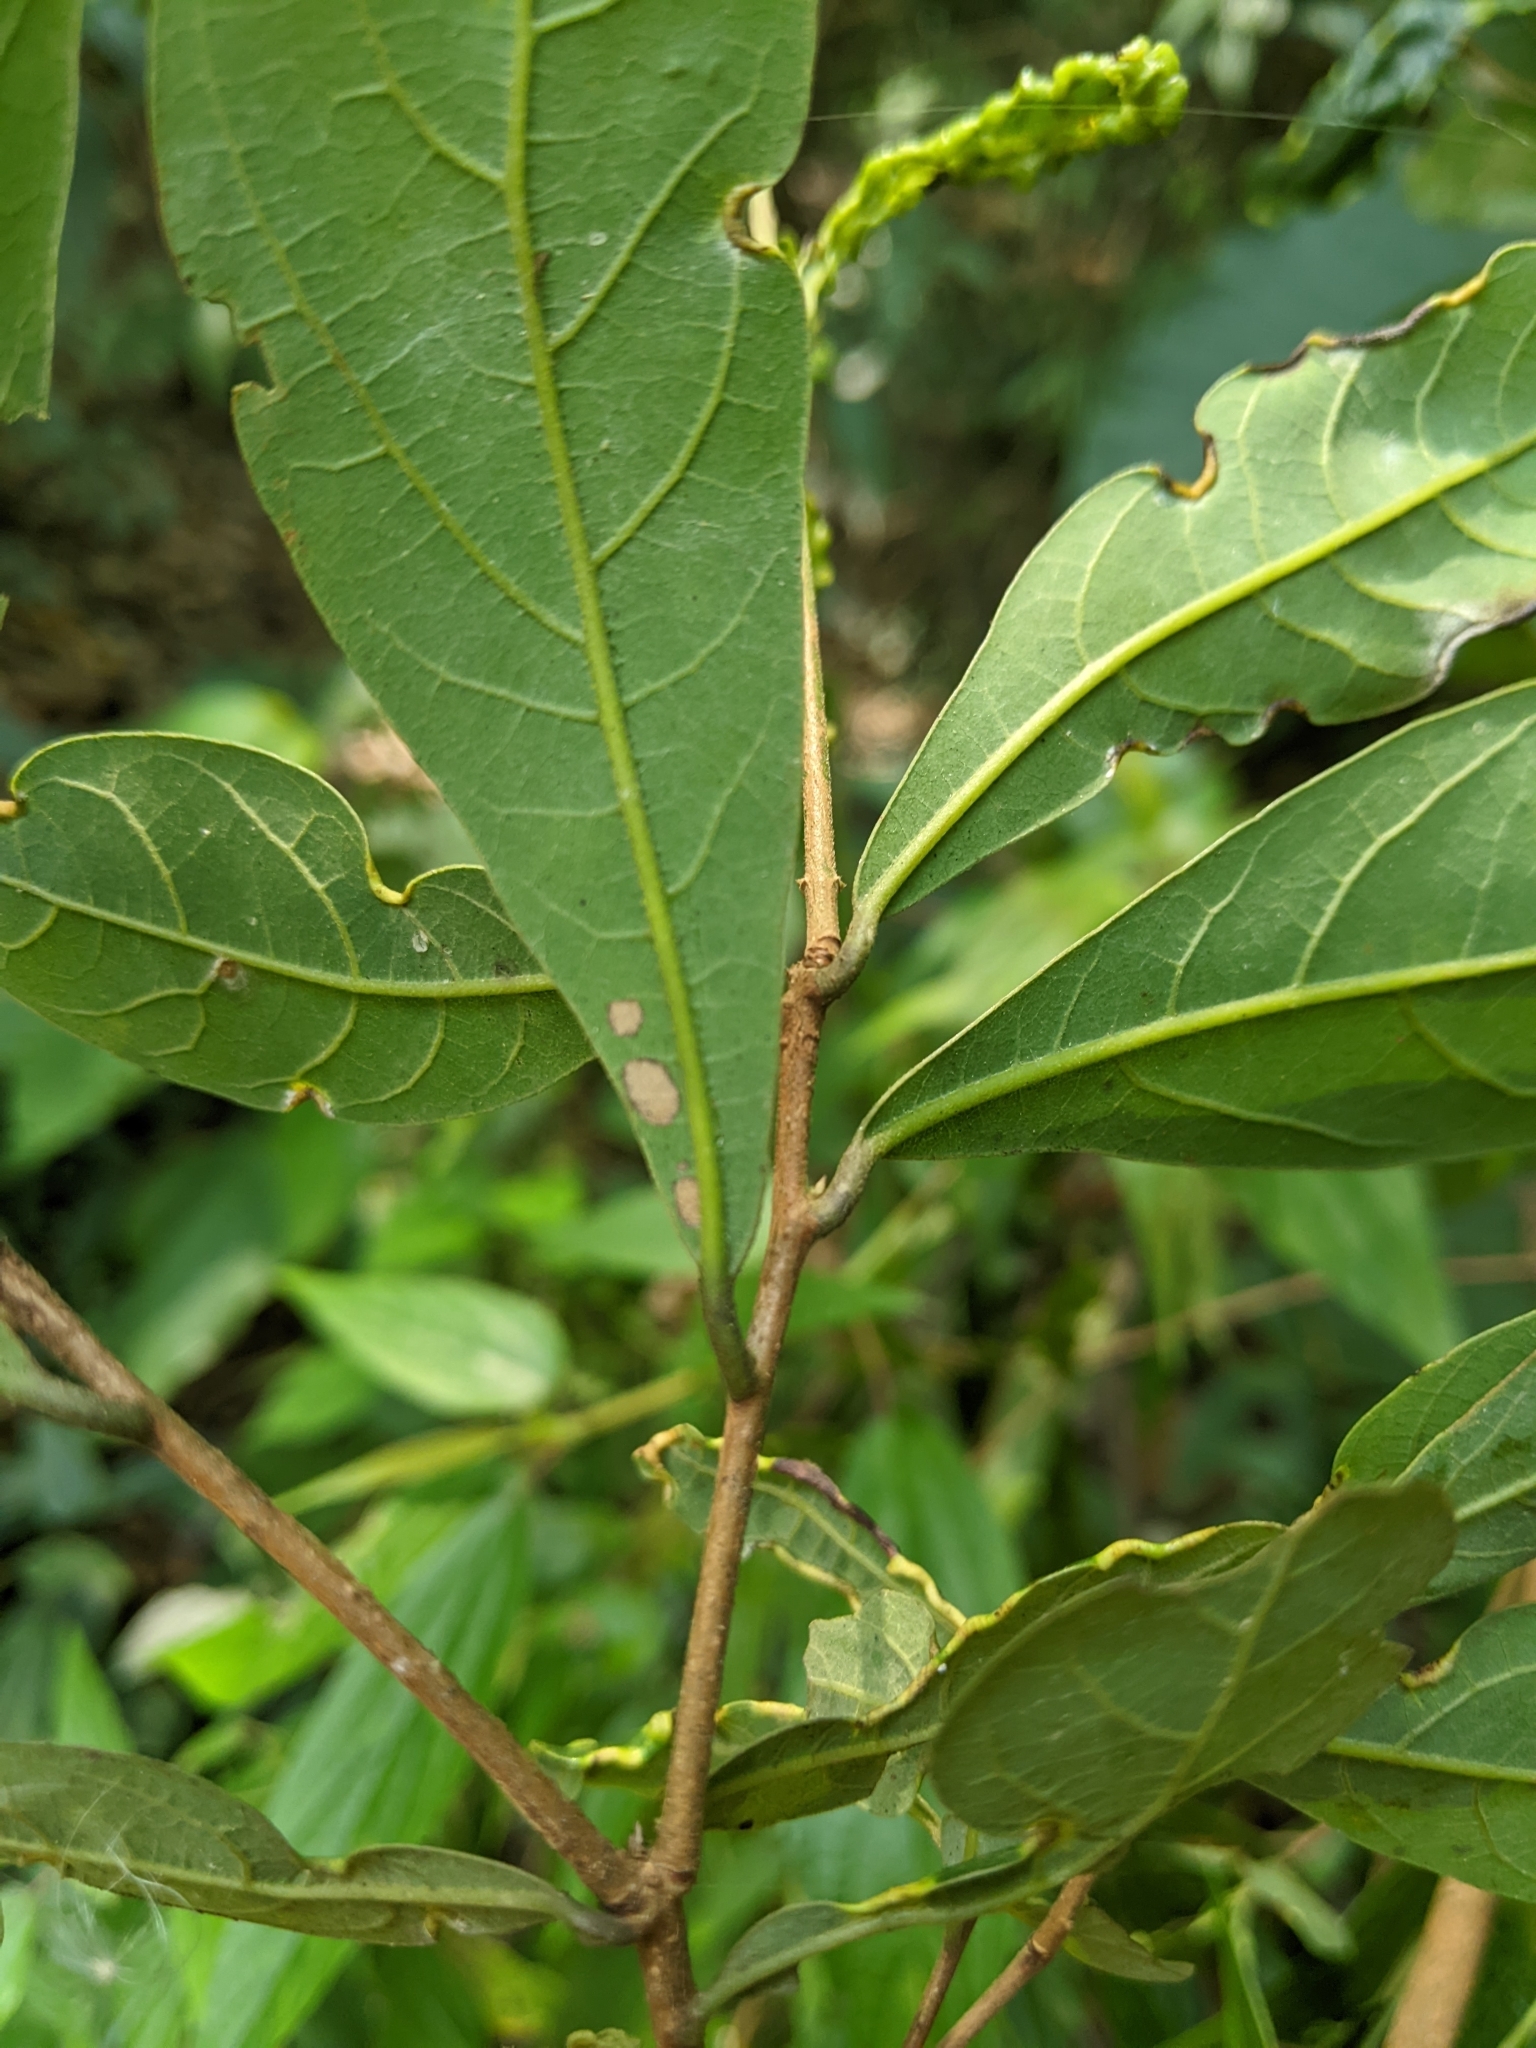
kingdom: Plantae
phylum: Tracheophyta
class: Magnoliopsida
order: Laurales
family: Lauraceae
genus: Litsea
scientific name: Litsea hypophaea
